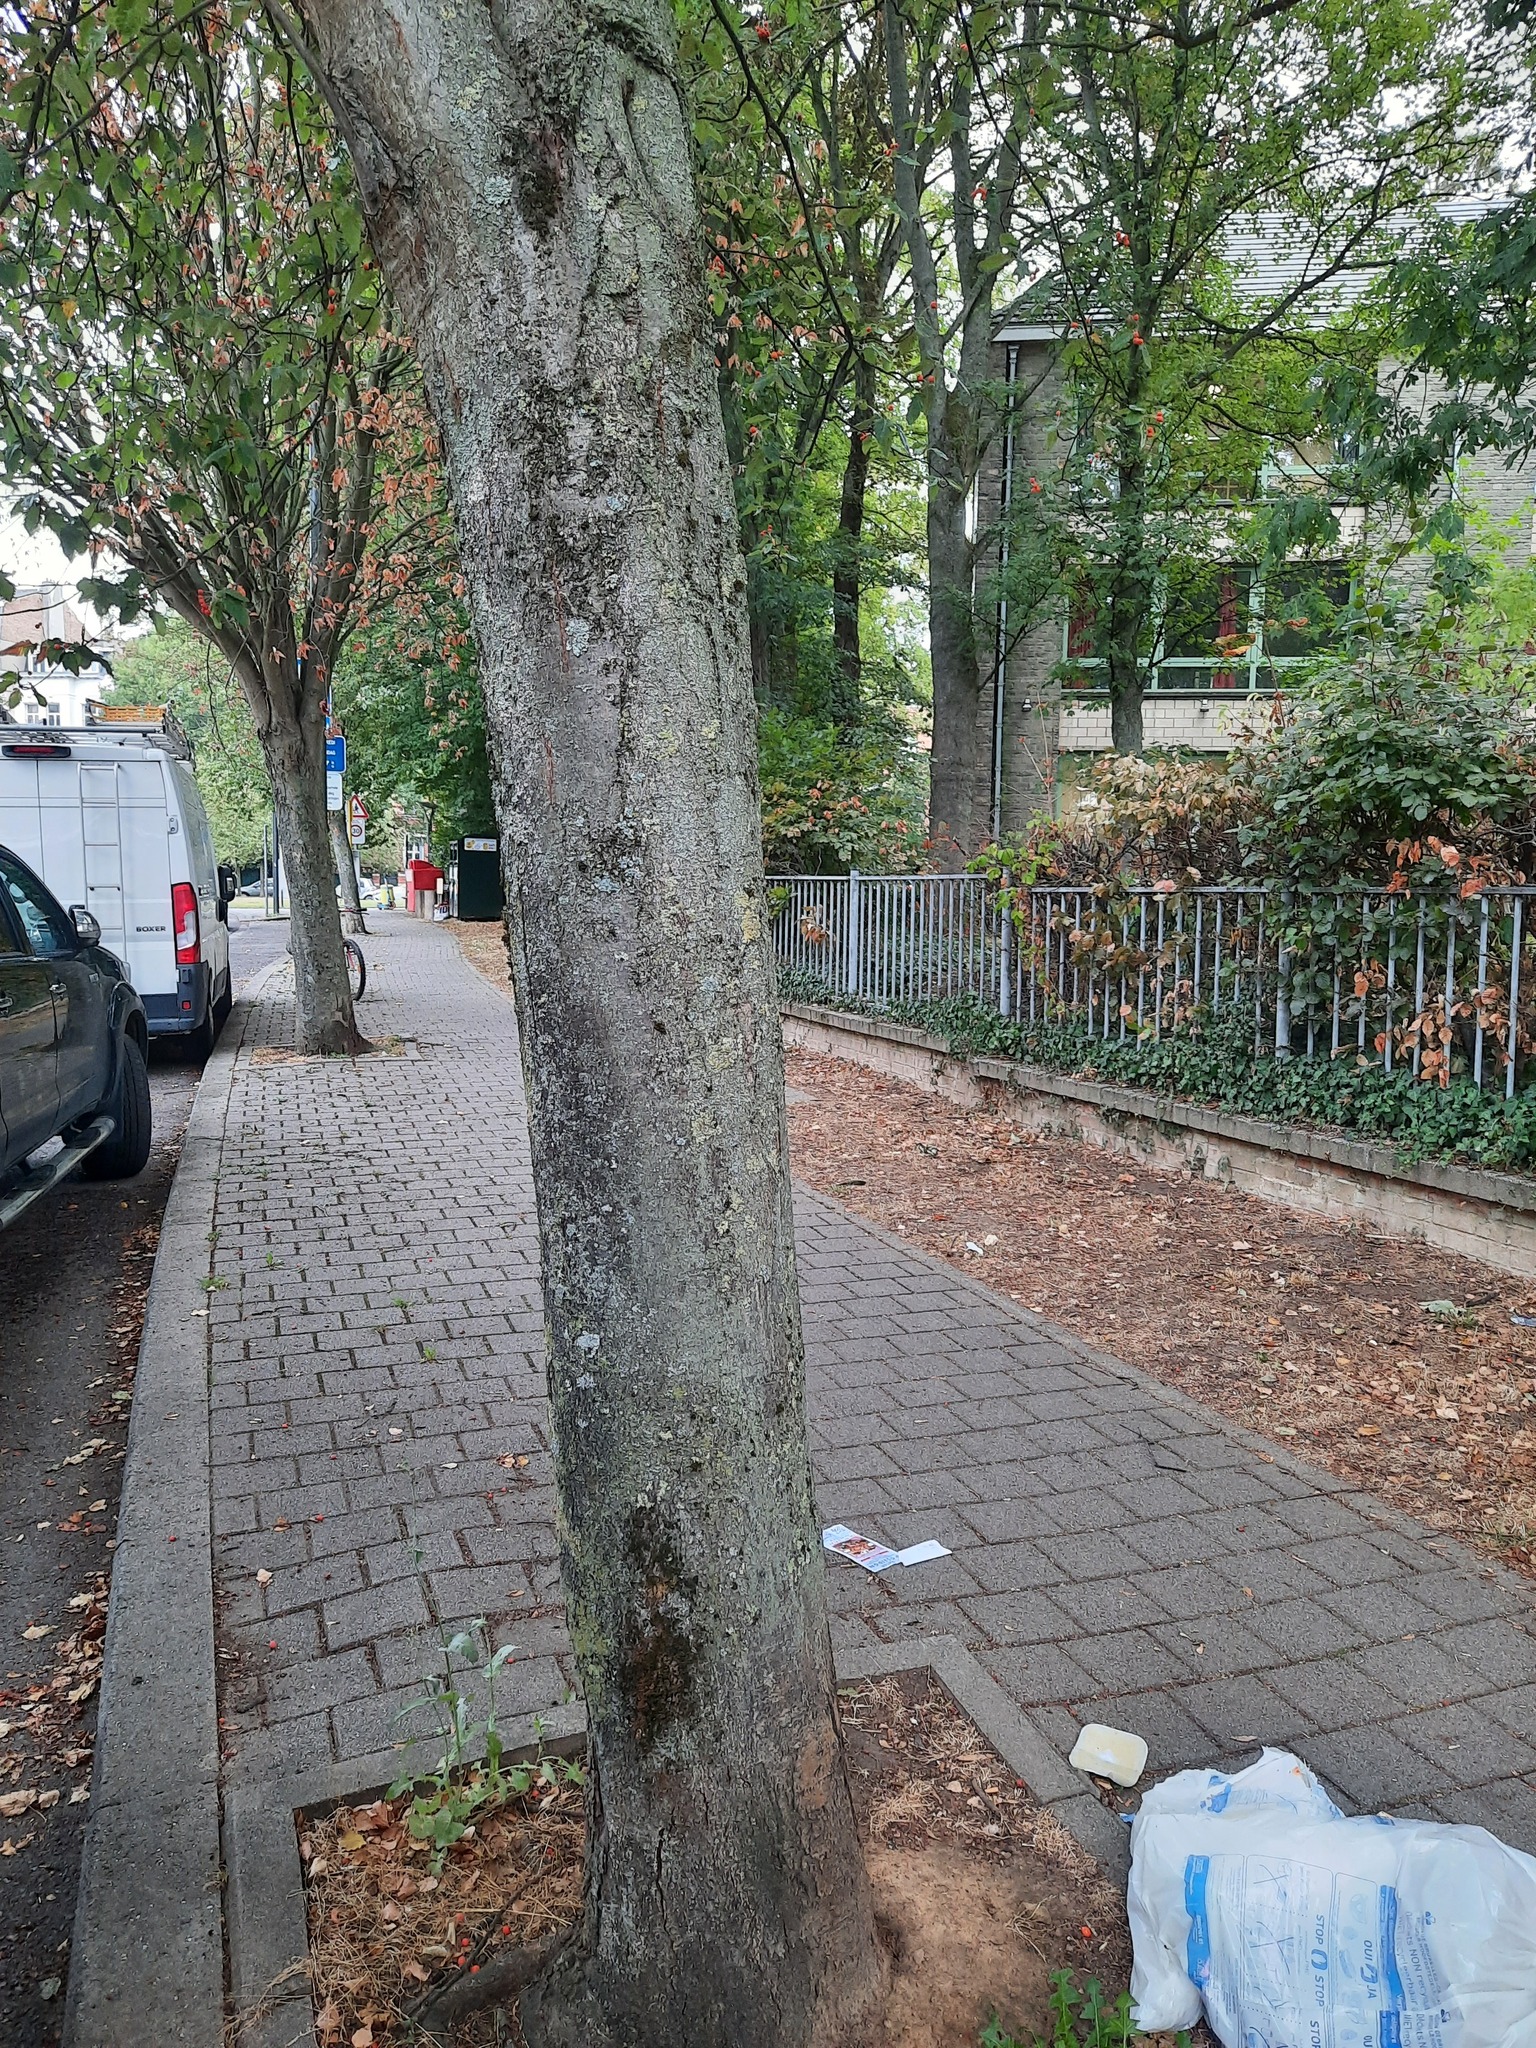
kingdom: Animalia
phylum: Arthropoda
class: Insecta
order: Hymenoptera
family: Vespidae
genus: Vespa
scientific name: Vespa velutina
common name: Asian hornet
